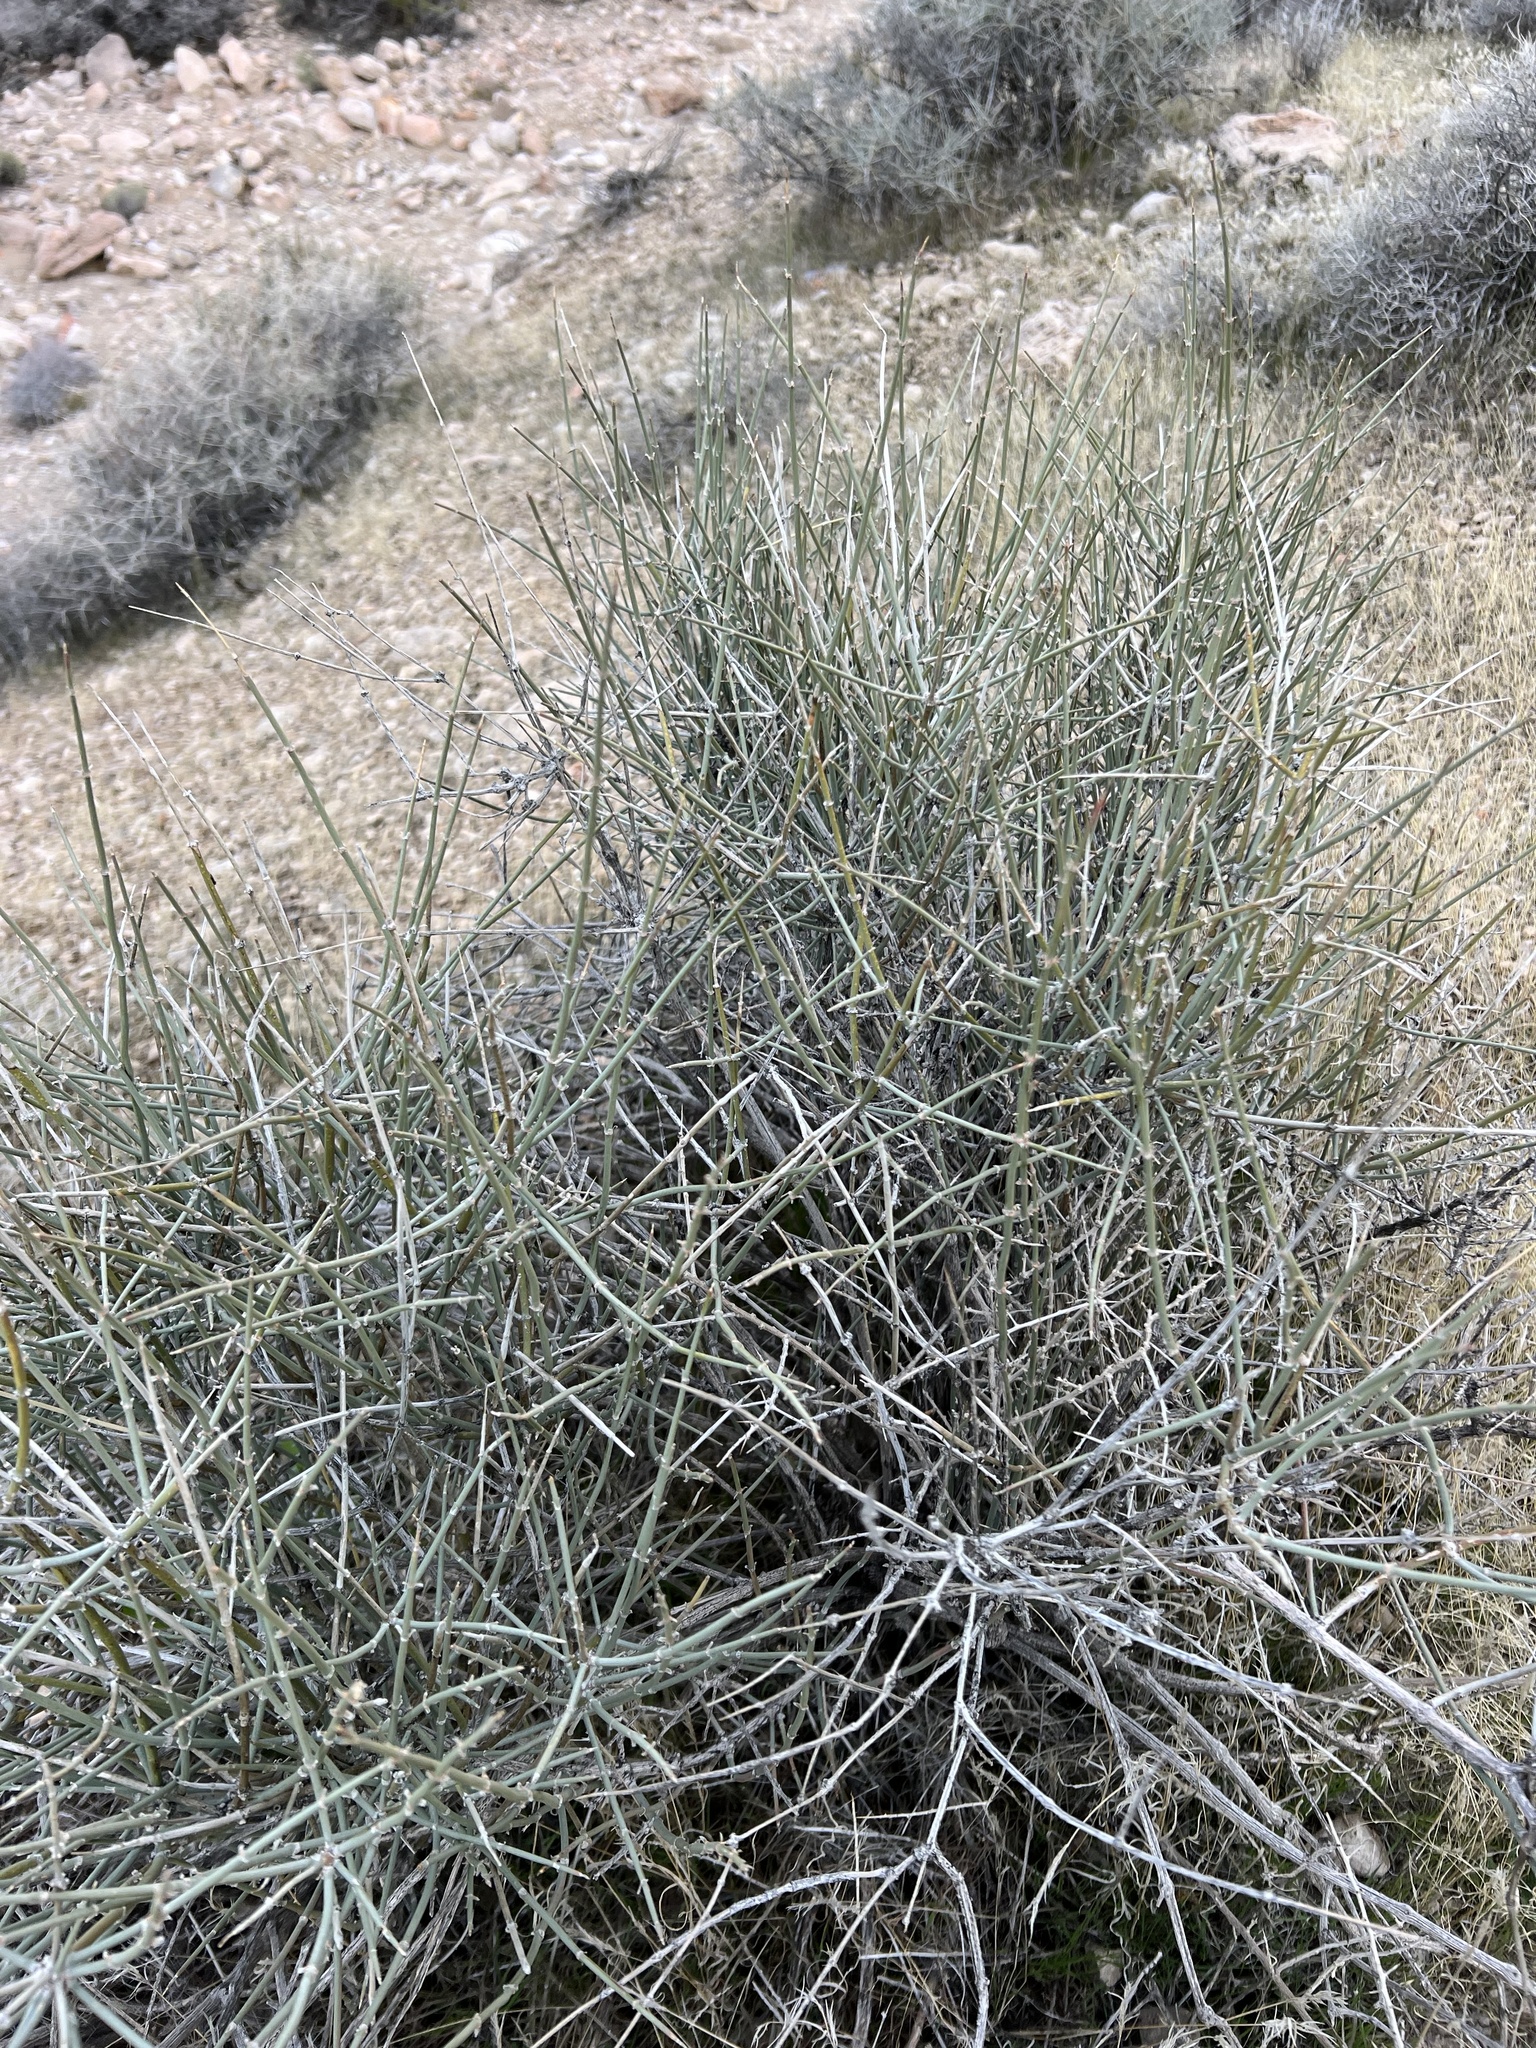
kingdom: Plantae
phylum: Tracheophyta
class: Gnetopsida
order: Ephedrales
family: Ephedraceae
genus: Ephedra
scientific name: Ephedra nevadensis
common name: Gray ephedra
